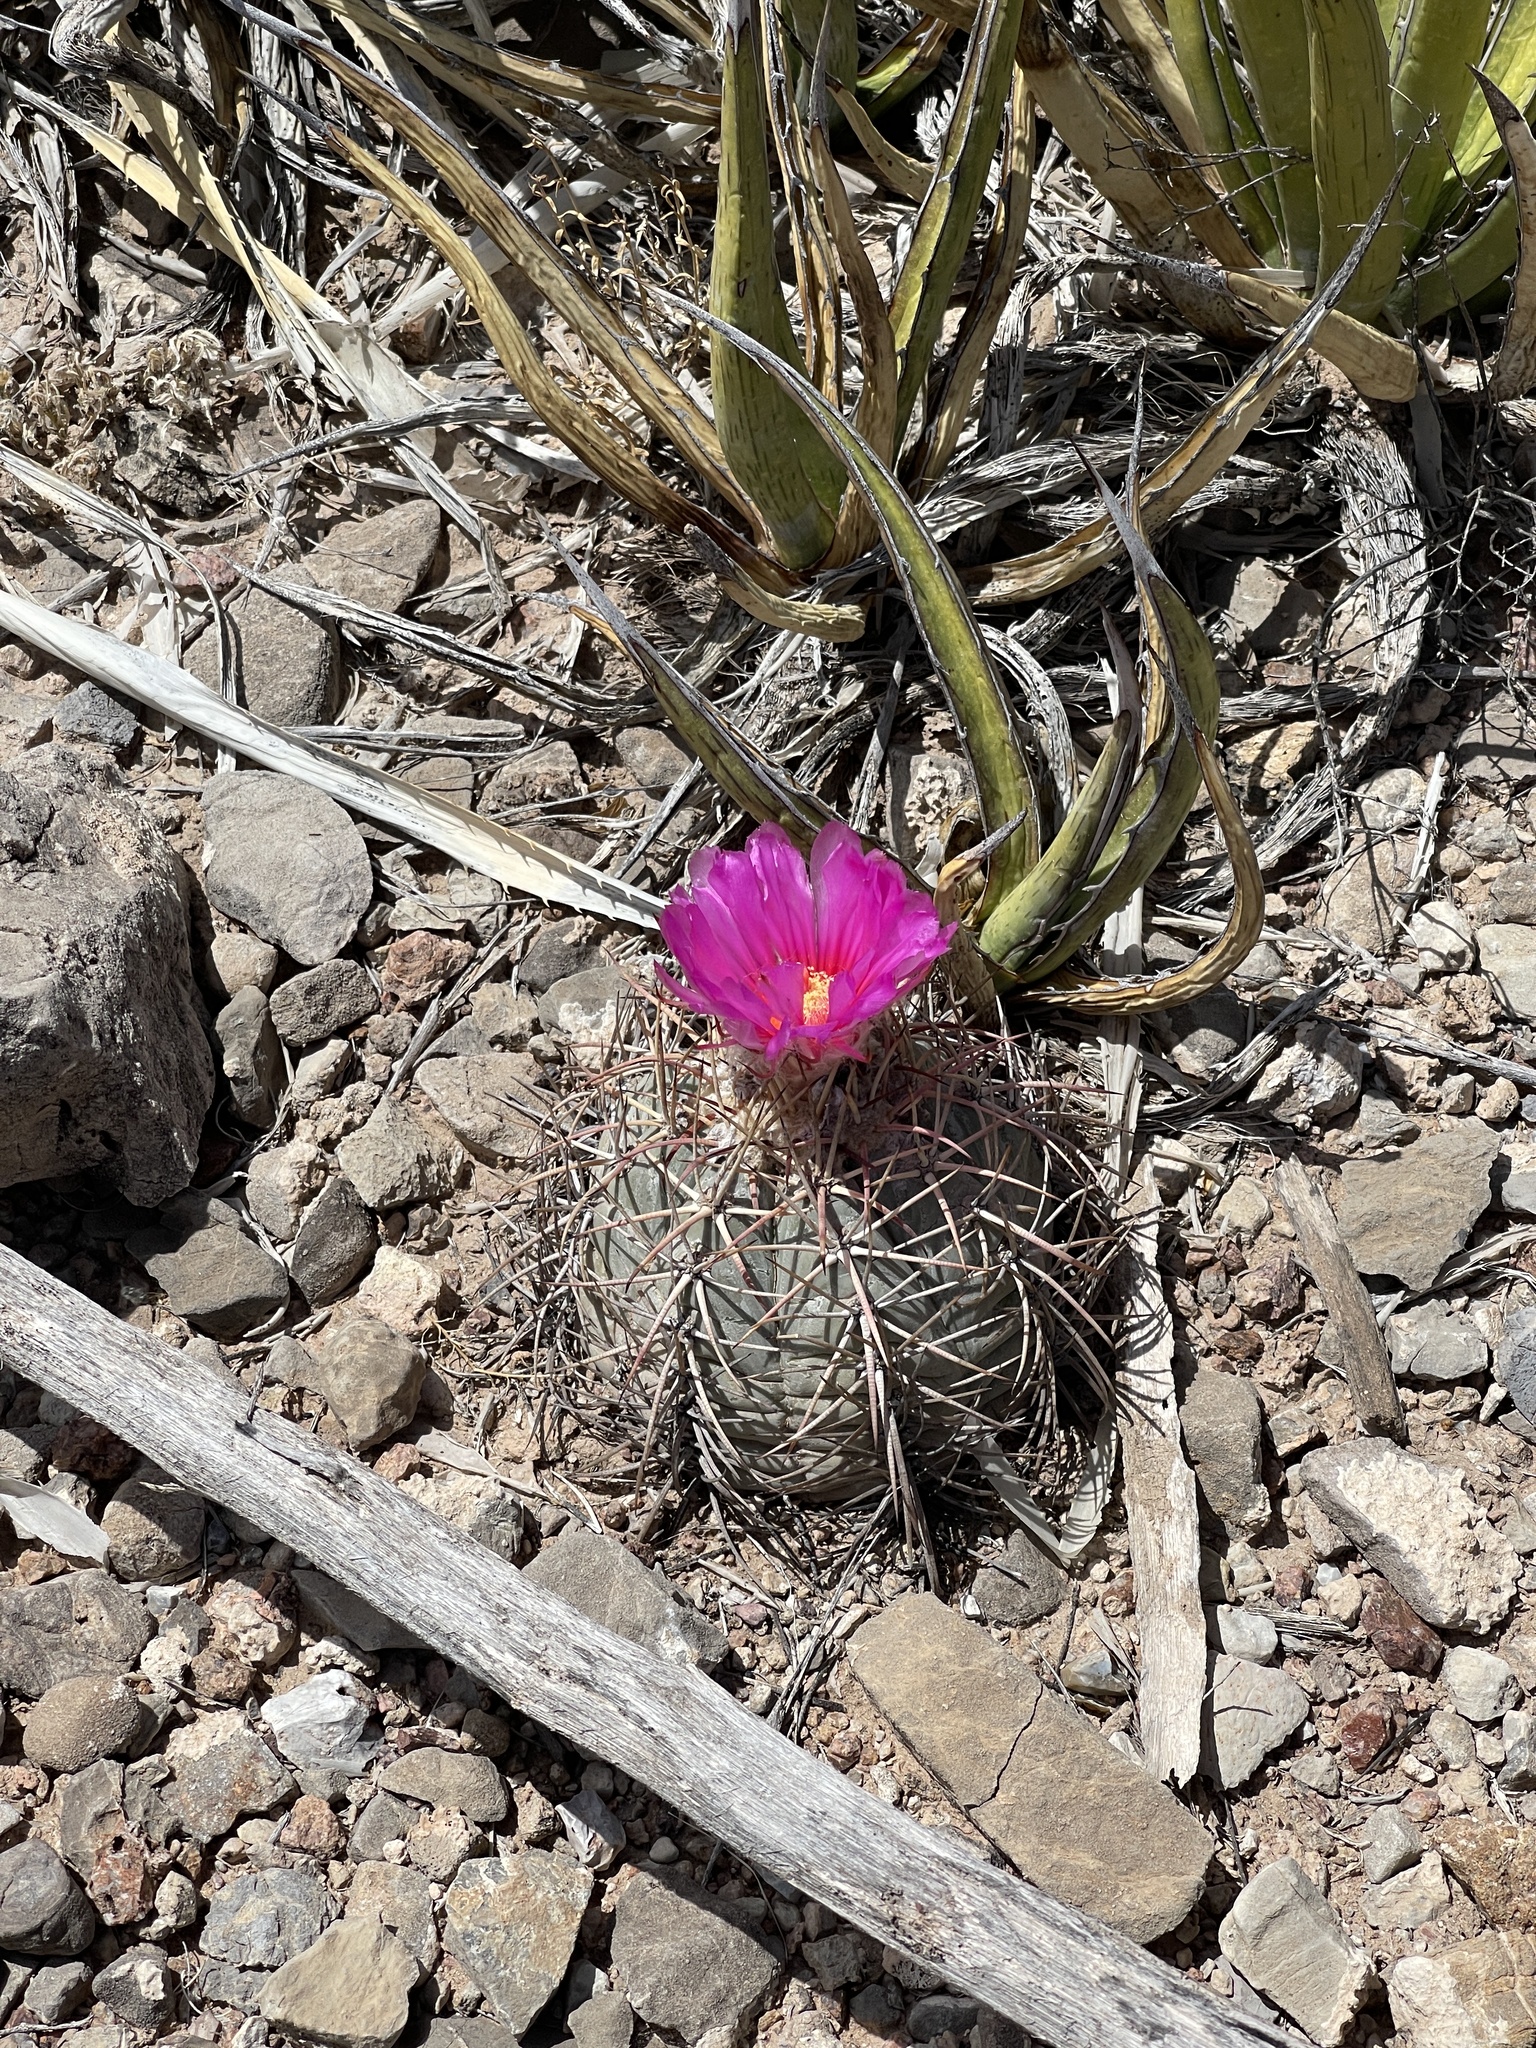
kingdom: Plantae
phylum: Tracheophyta
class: Magnoliopsida
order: Caryophyllales
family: Cactaceae
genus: Echinocactus
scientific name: Echinocactus horizonthalonius
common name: Devilshead
